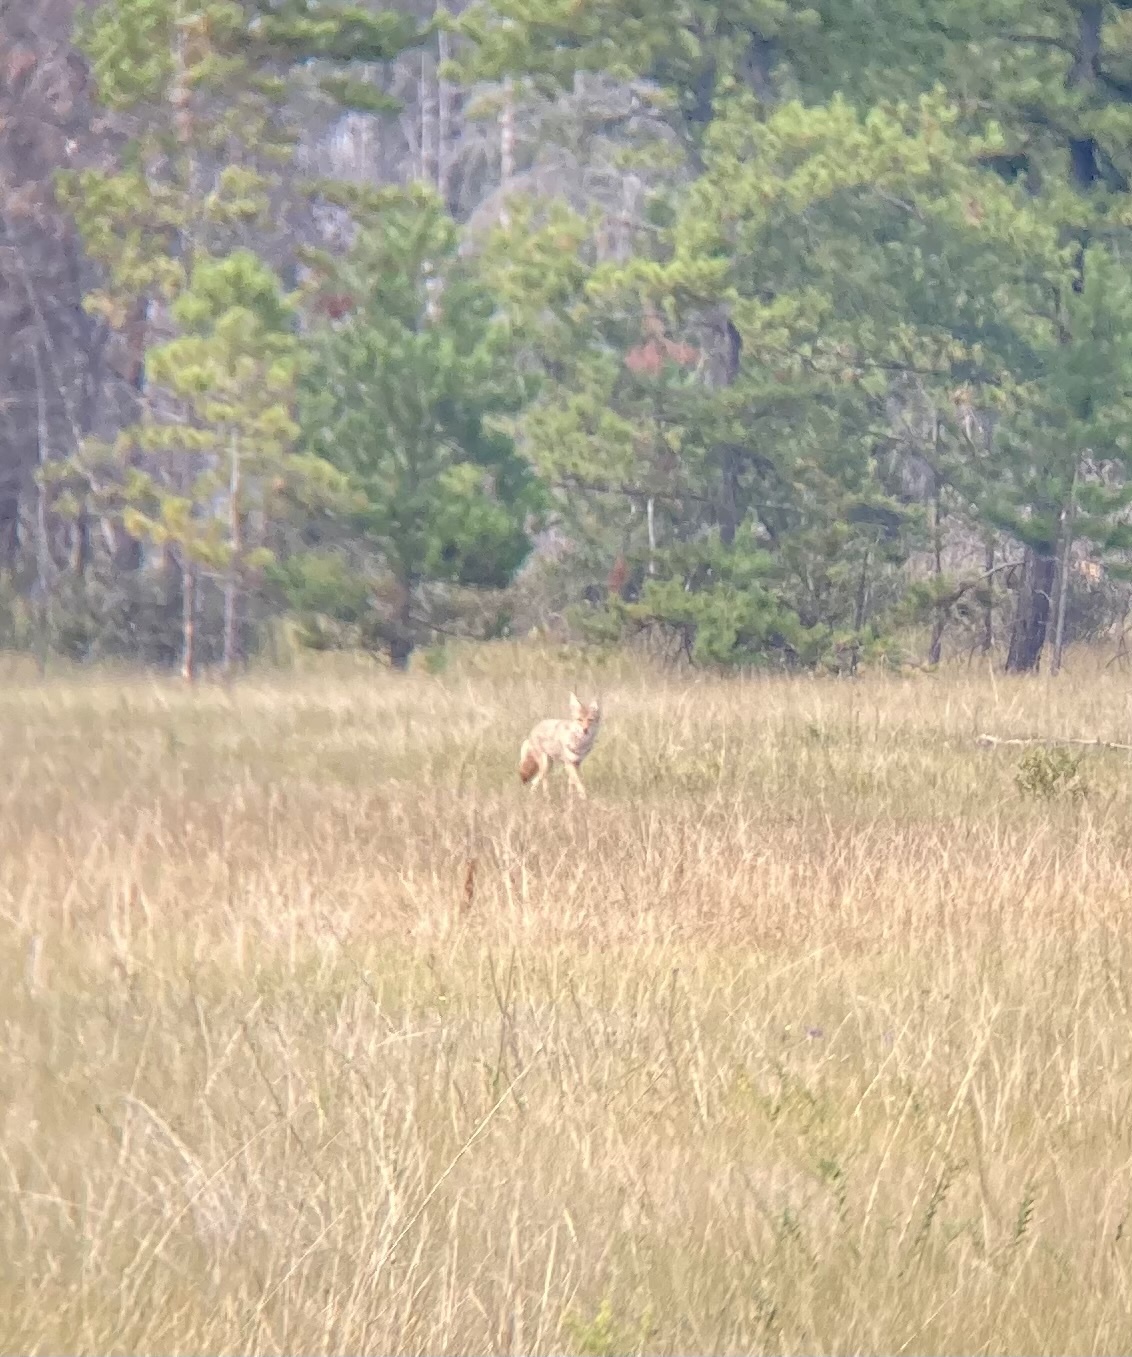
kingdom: Animalia
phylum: Chordata
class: Mammalia
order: Carnivora
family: Canidae
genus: Canis
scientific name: Canis latrans
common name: Coyote
